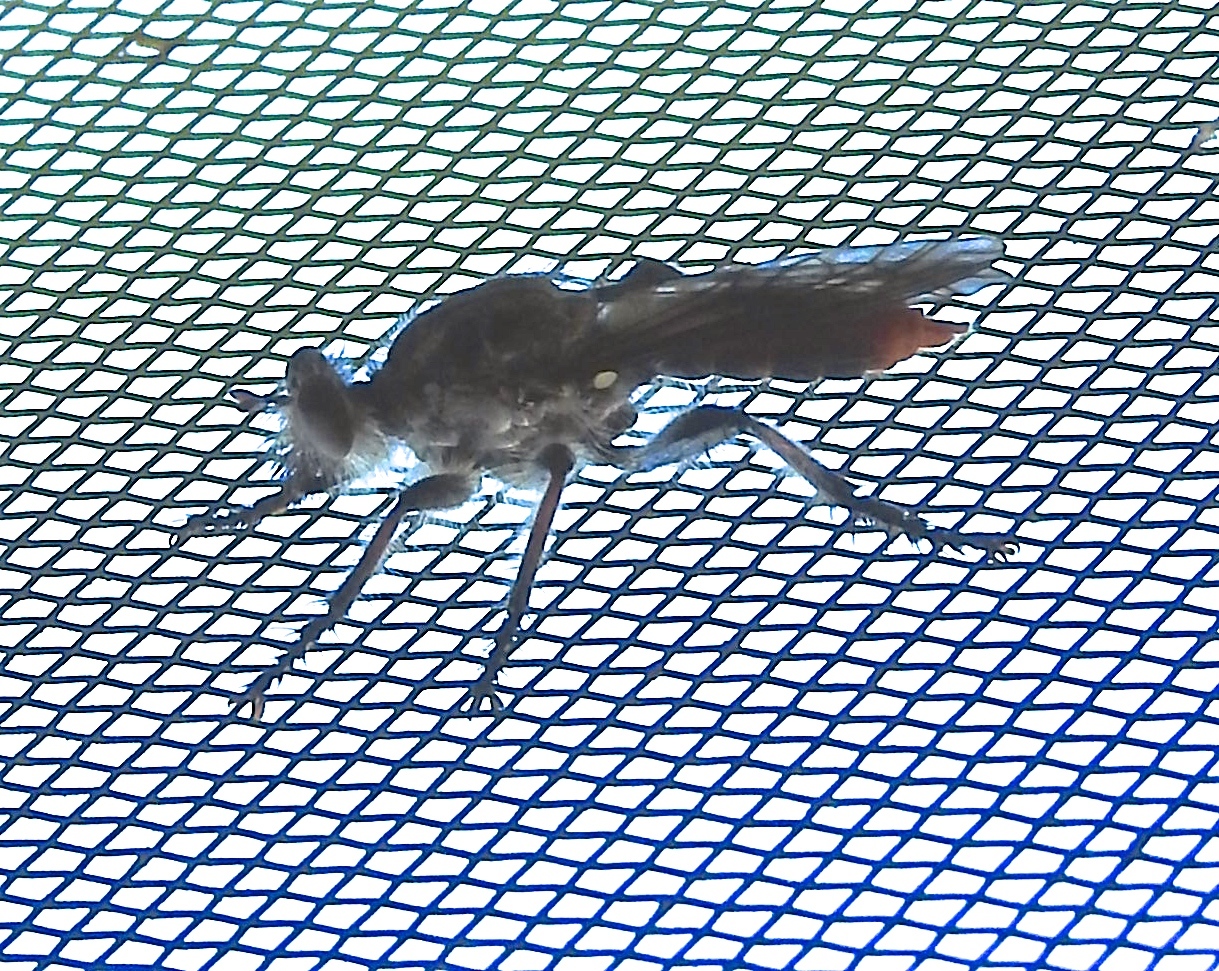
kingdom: Animalia
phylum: Arthropoda
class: Insecta
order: Diptera
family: Asilidae
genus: Andrenosoma
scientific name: Andrenosoma
